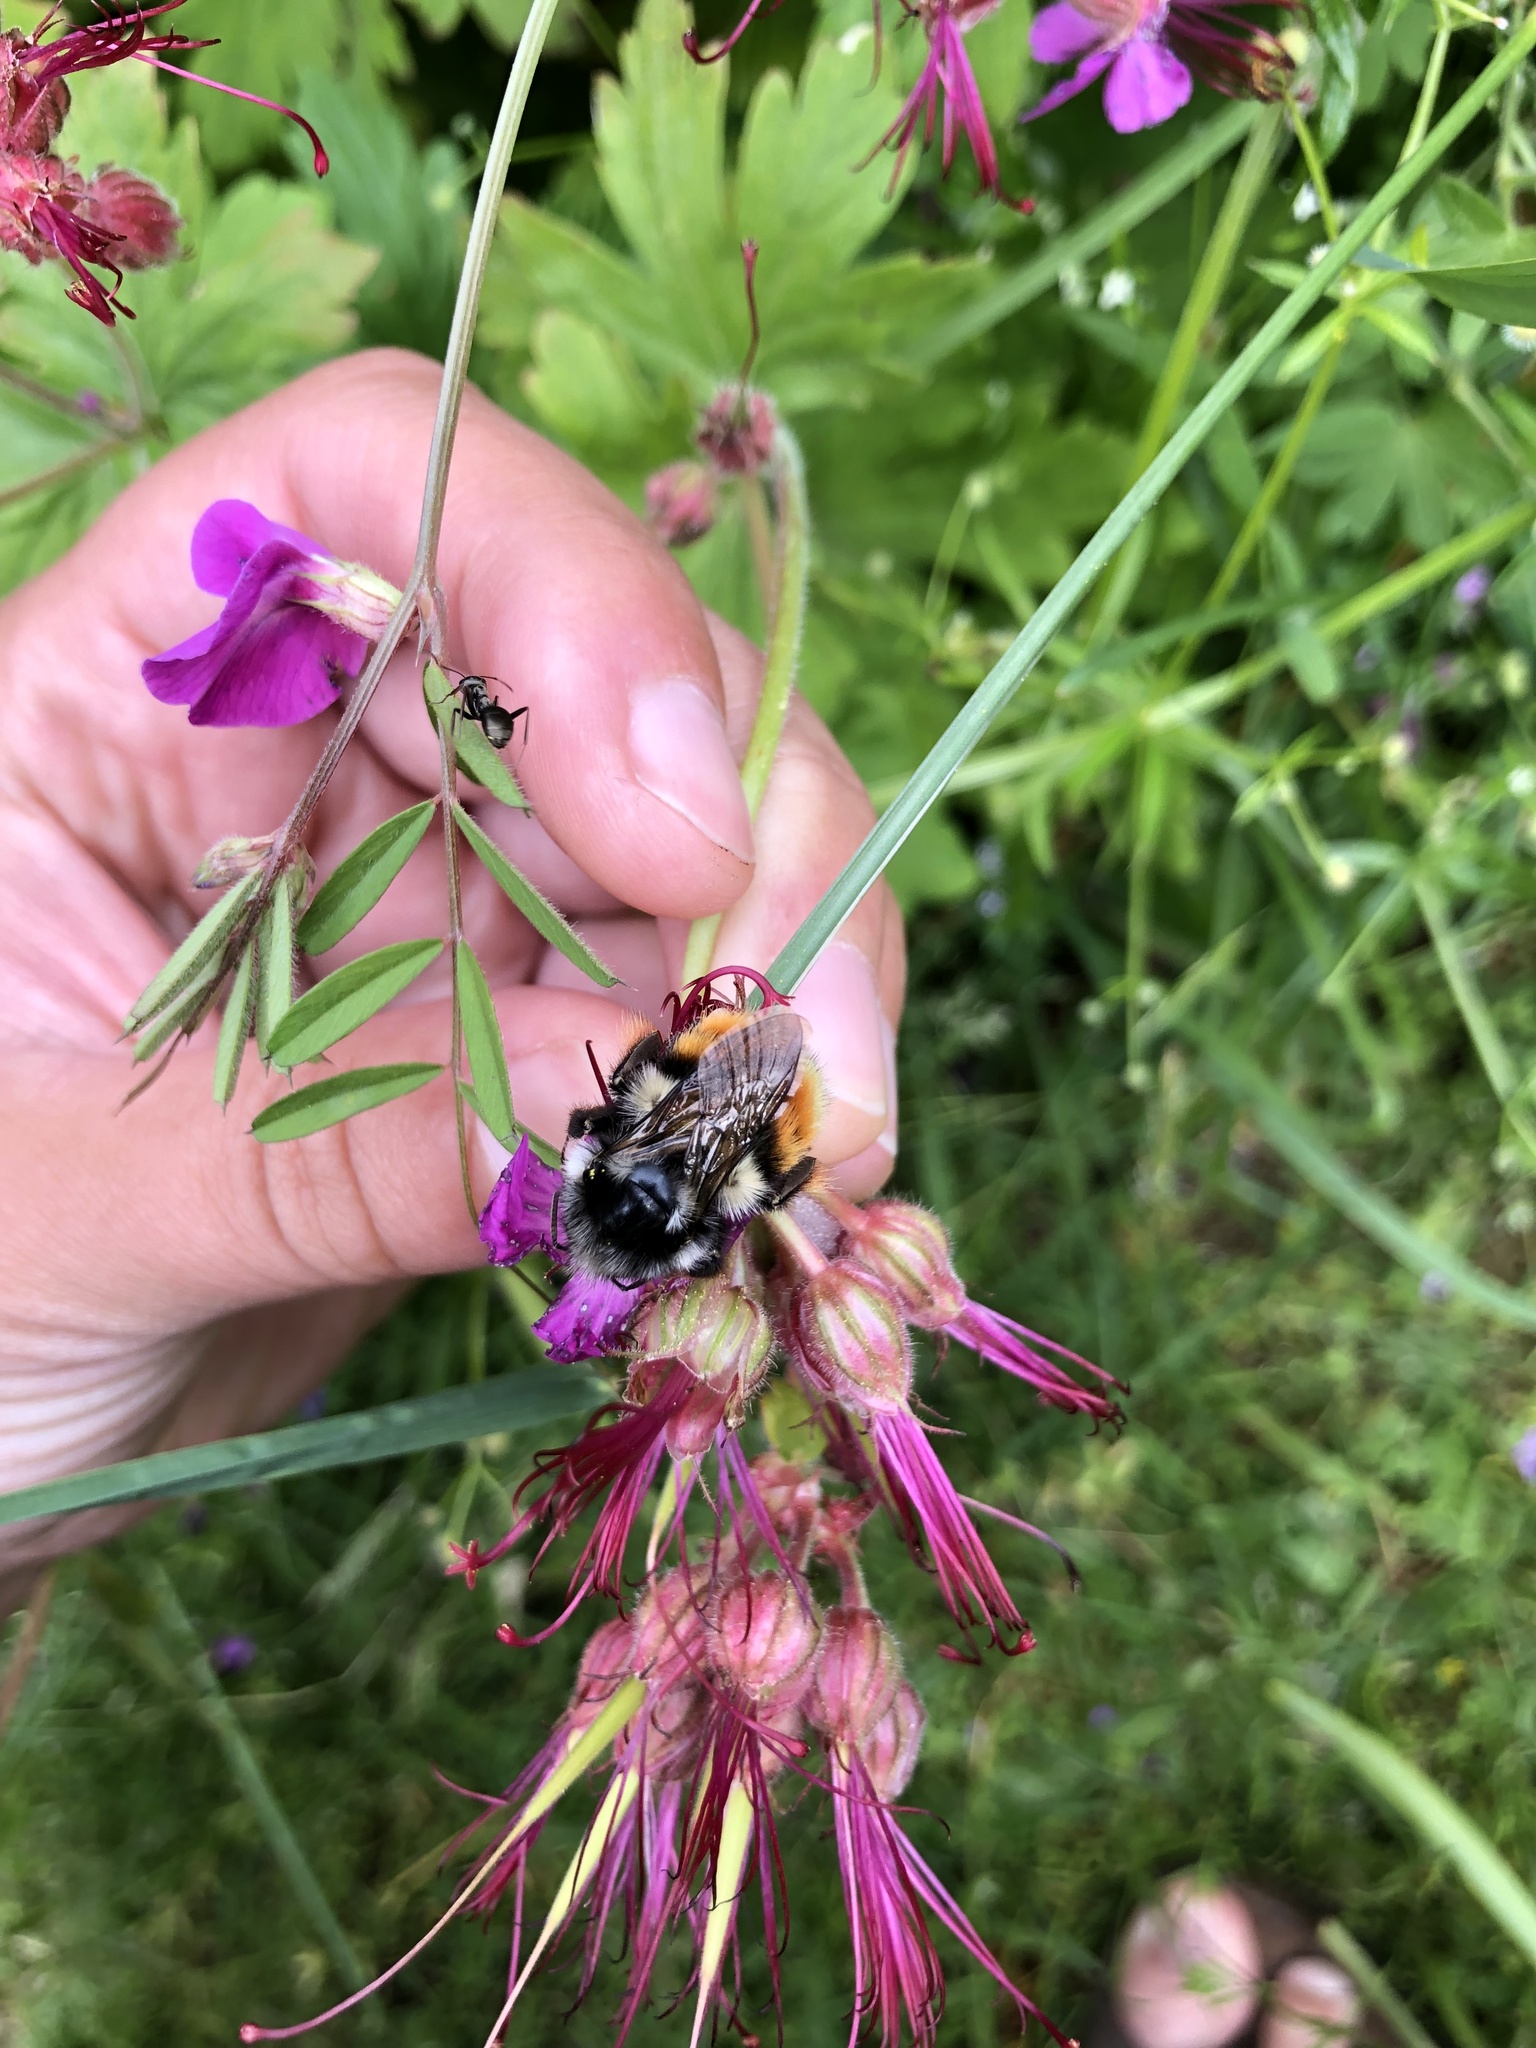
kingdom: Animalia
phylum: Arthropoda
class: Insecta
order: Hymenoptera
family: Apidae
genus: Bombus
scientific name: Bombus vancouverensis
